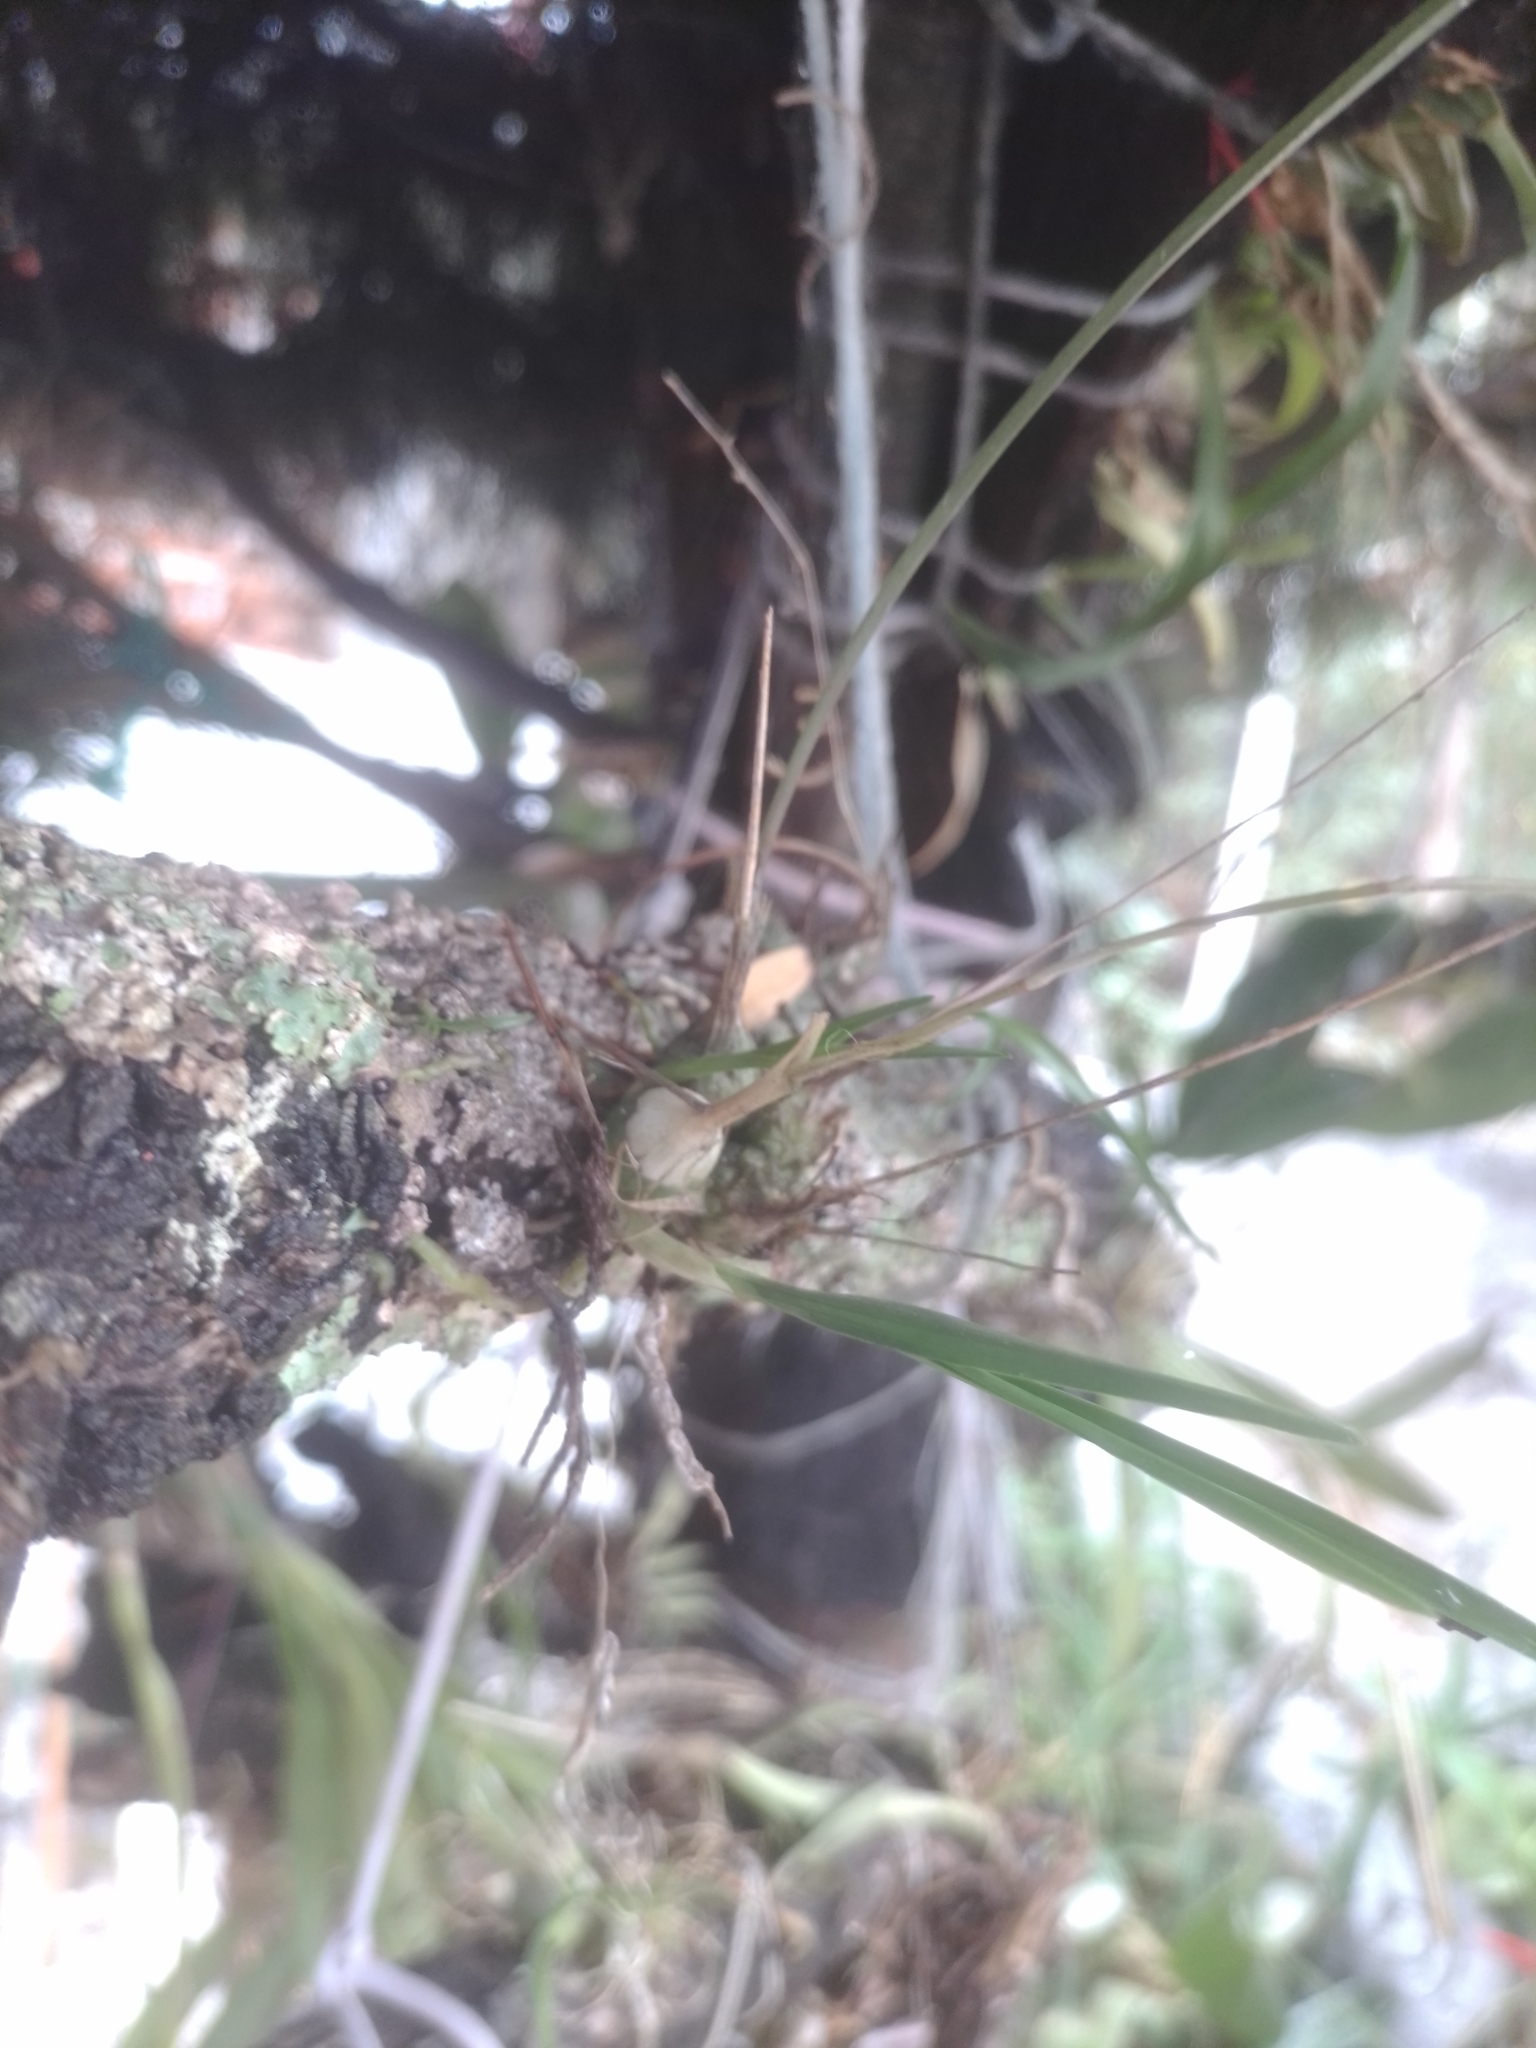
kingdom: Plantae
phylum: Tracheophyta
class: Liliopsida
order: Asparagales
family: Orchidaceae
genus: Oestlundia
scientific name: Oestlundia ligulata
